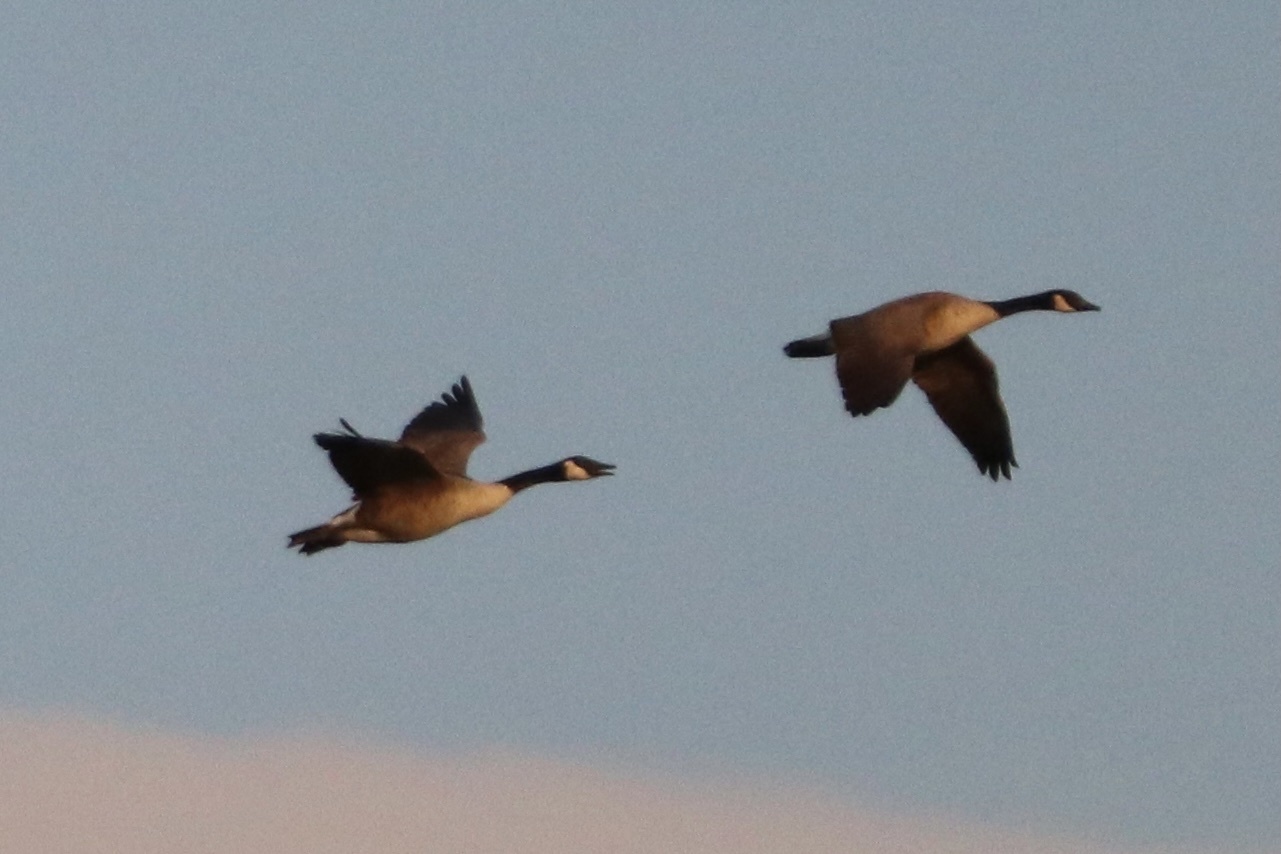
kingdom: Animalia
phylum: Chordata
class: Aves
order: Anseriformes
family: Anatidae
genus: Branta
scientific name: Branta canadensis
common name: Canada goose
